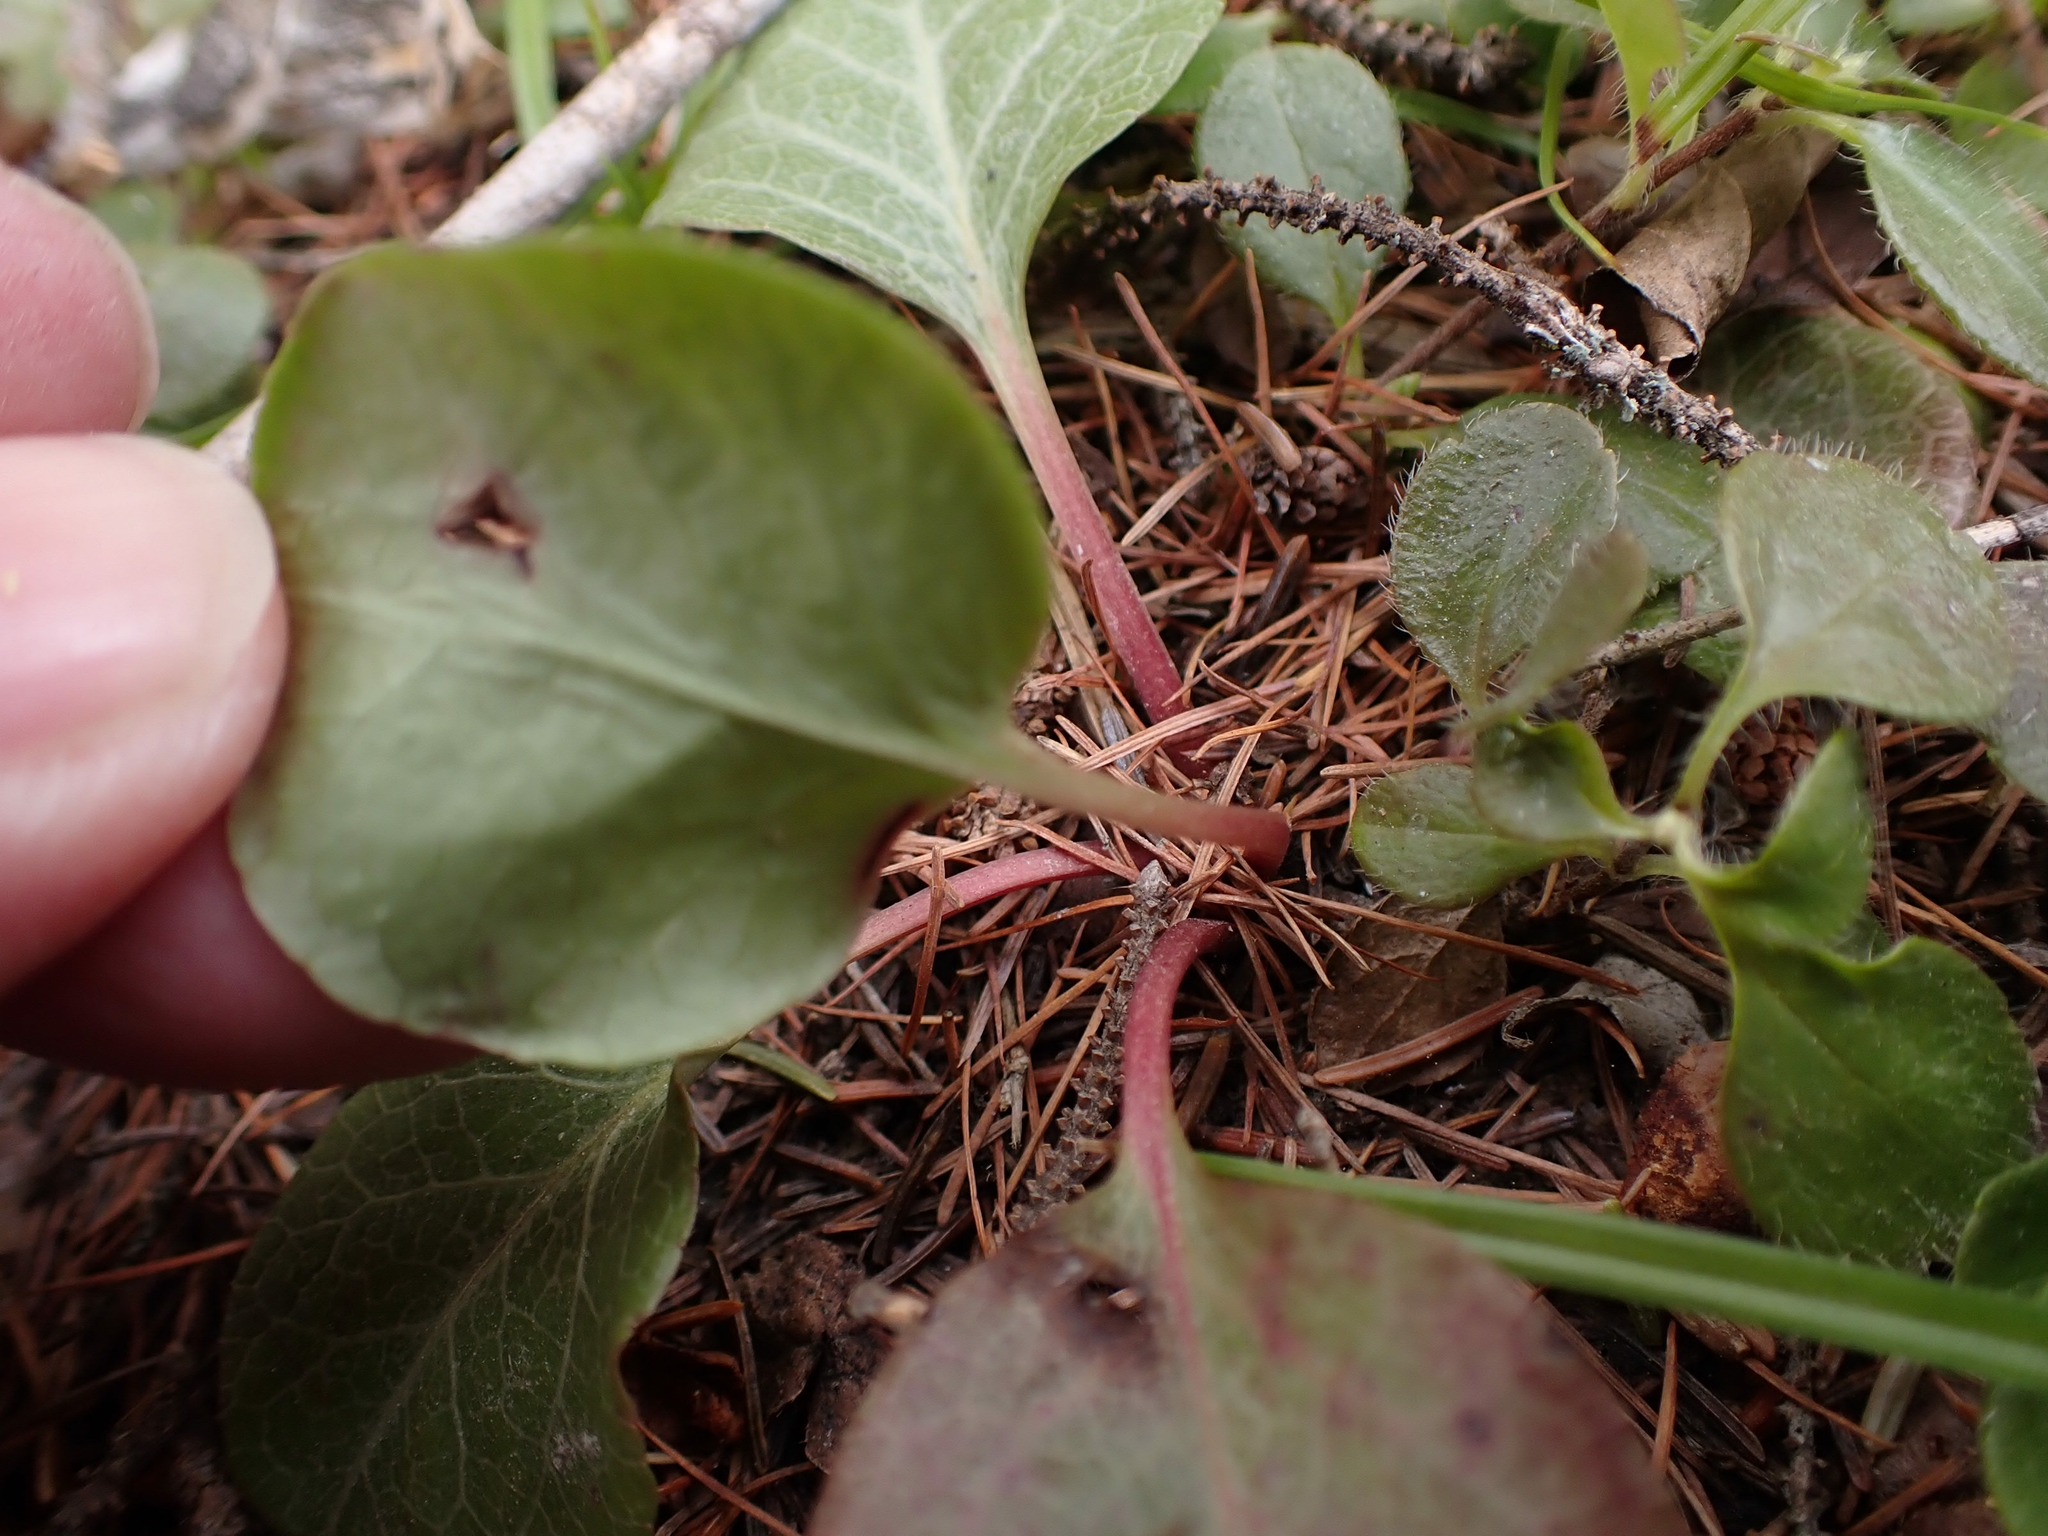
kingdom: Plantae
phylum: Tracheophyta
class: Magnoliopsida
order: Ericales
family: Ericaceae
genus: Pyrola
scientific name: Pyrola americana
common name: American wintergreen
